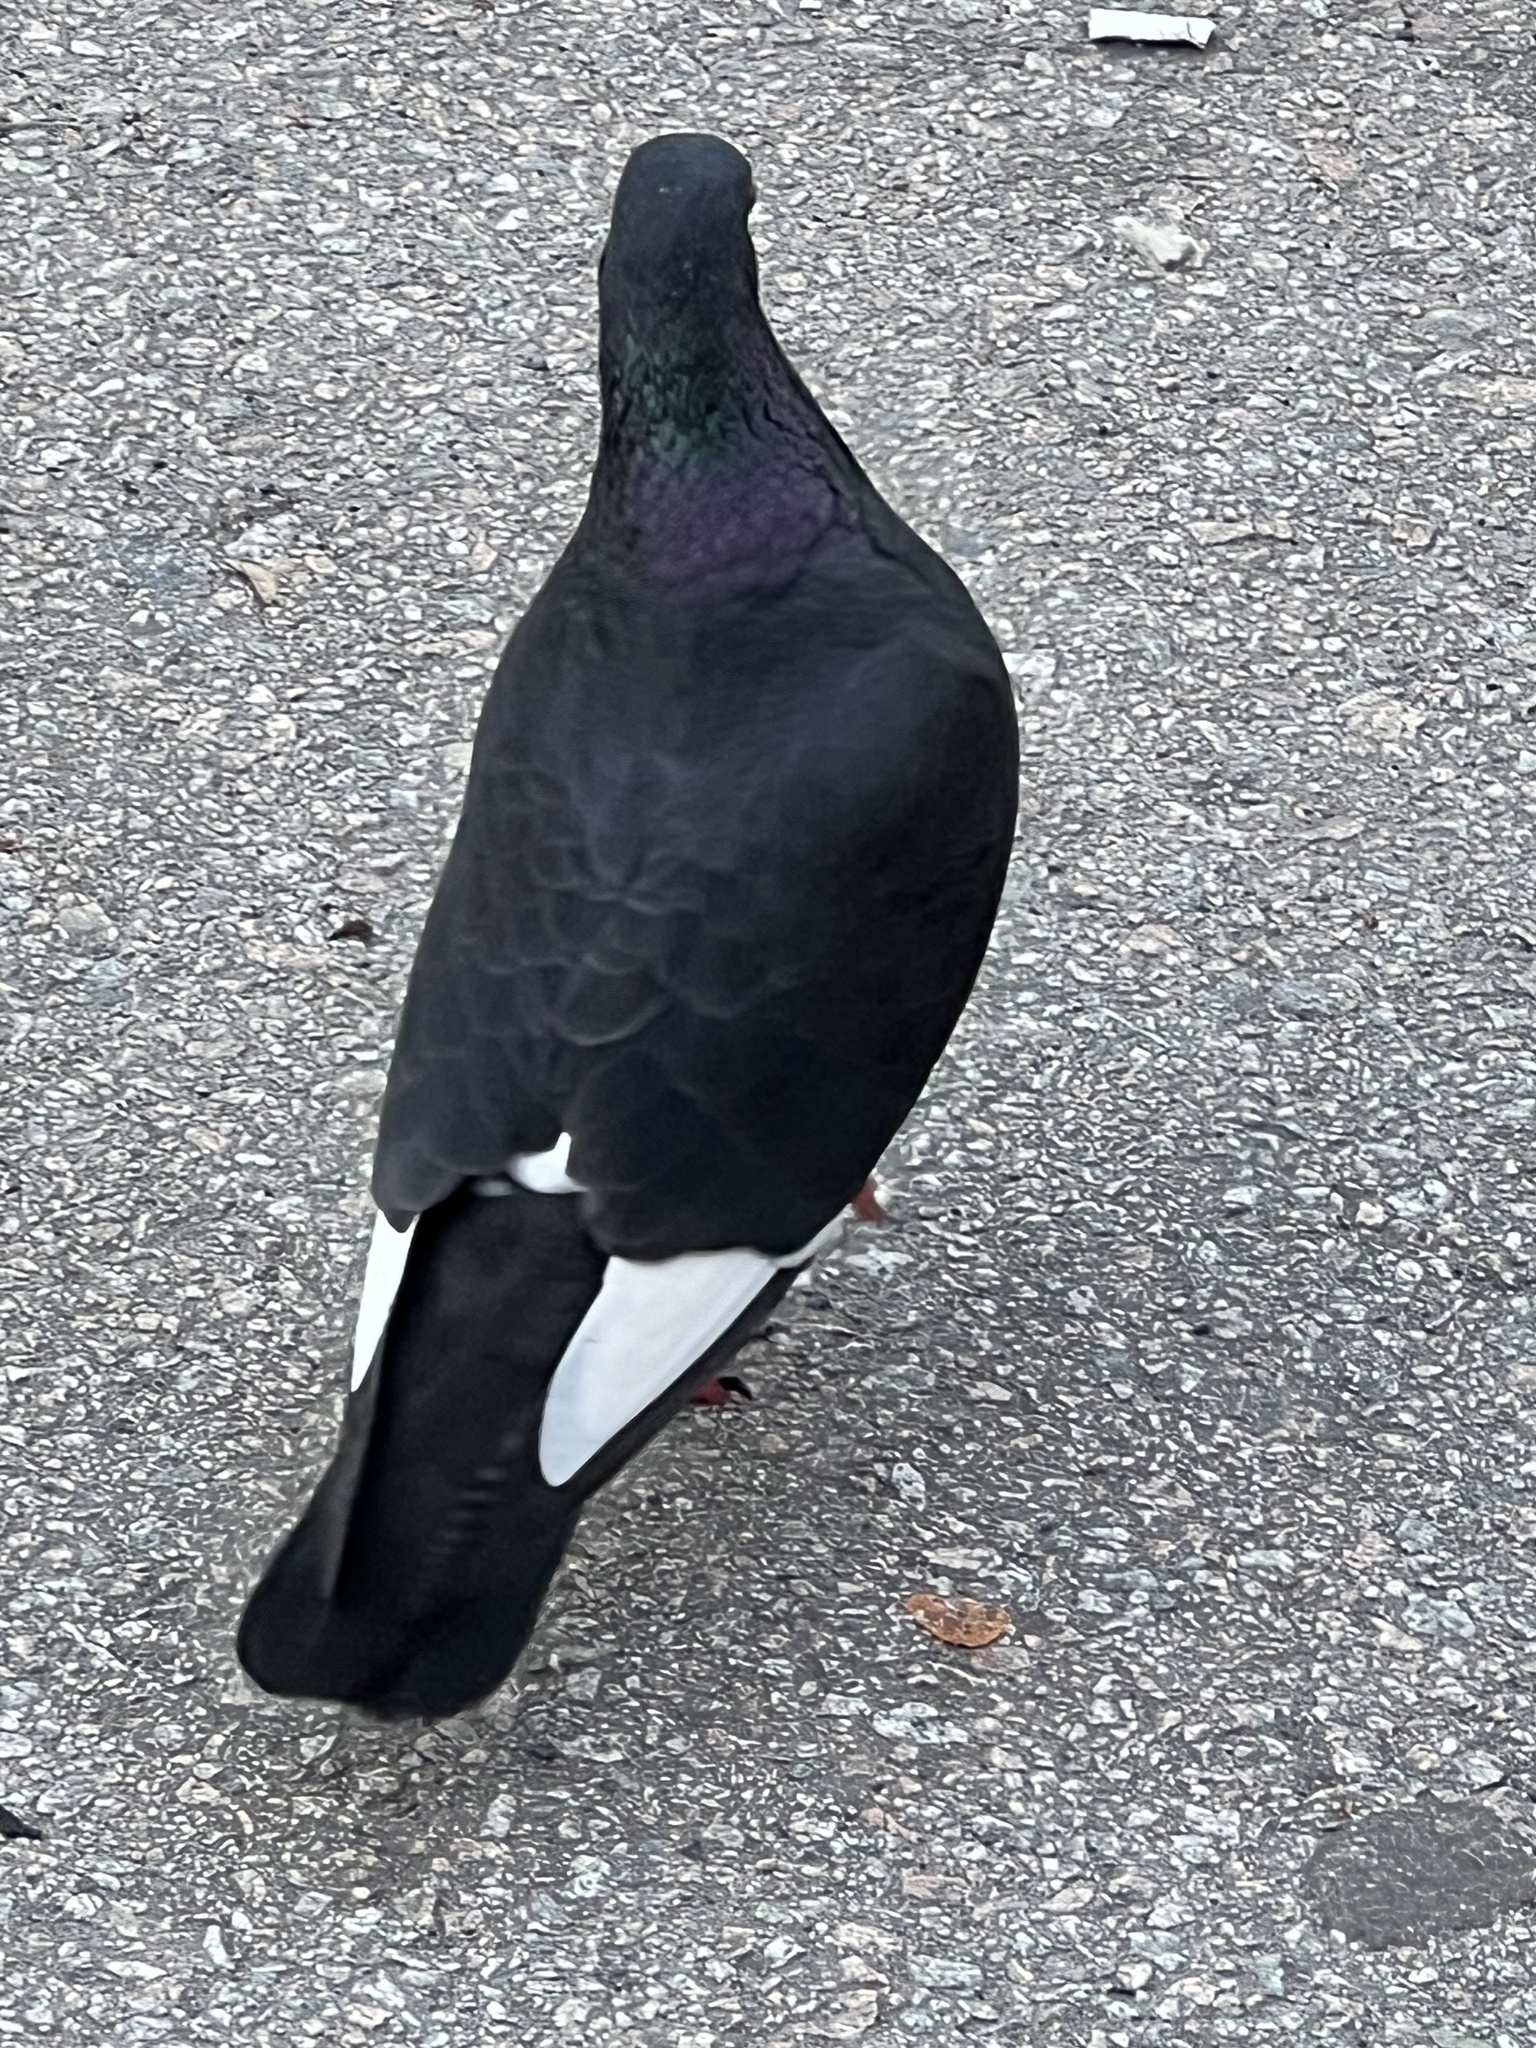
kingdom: Animalia
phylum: Chordata
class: Aves
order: Columbiformes
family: Columbidae
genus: Columba
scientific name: Columba livia
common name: Rock pigeon
